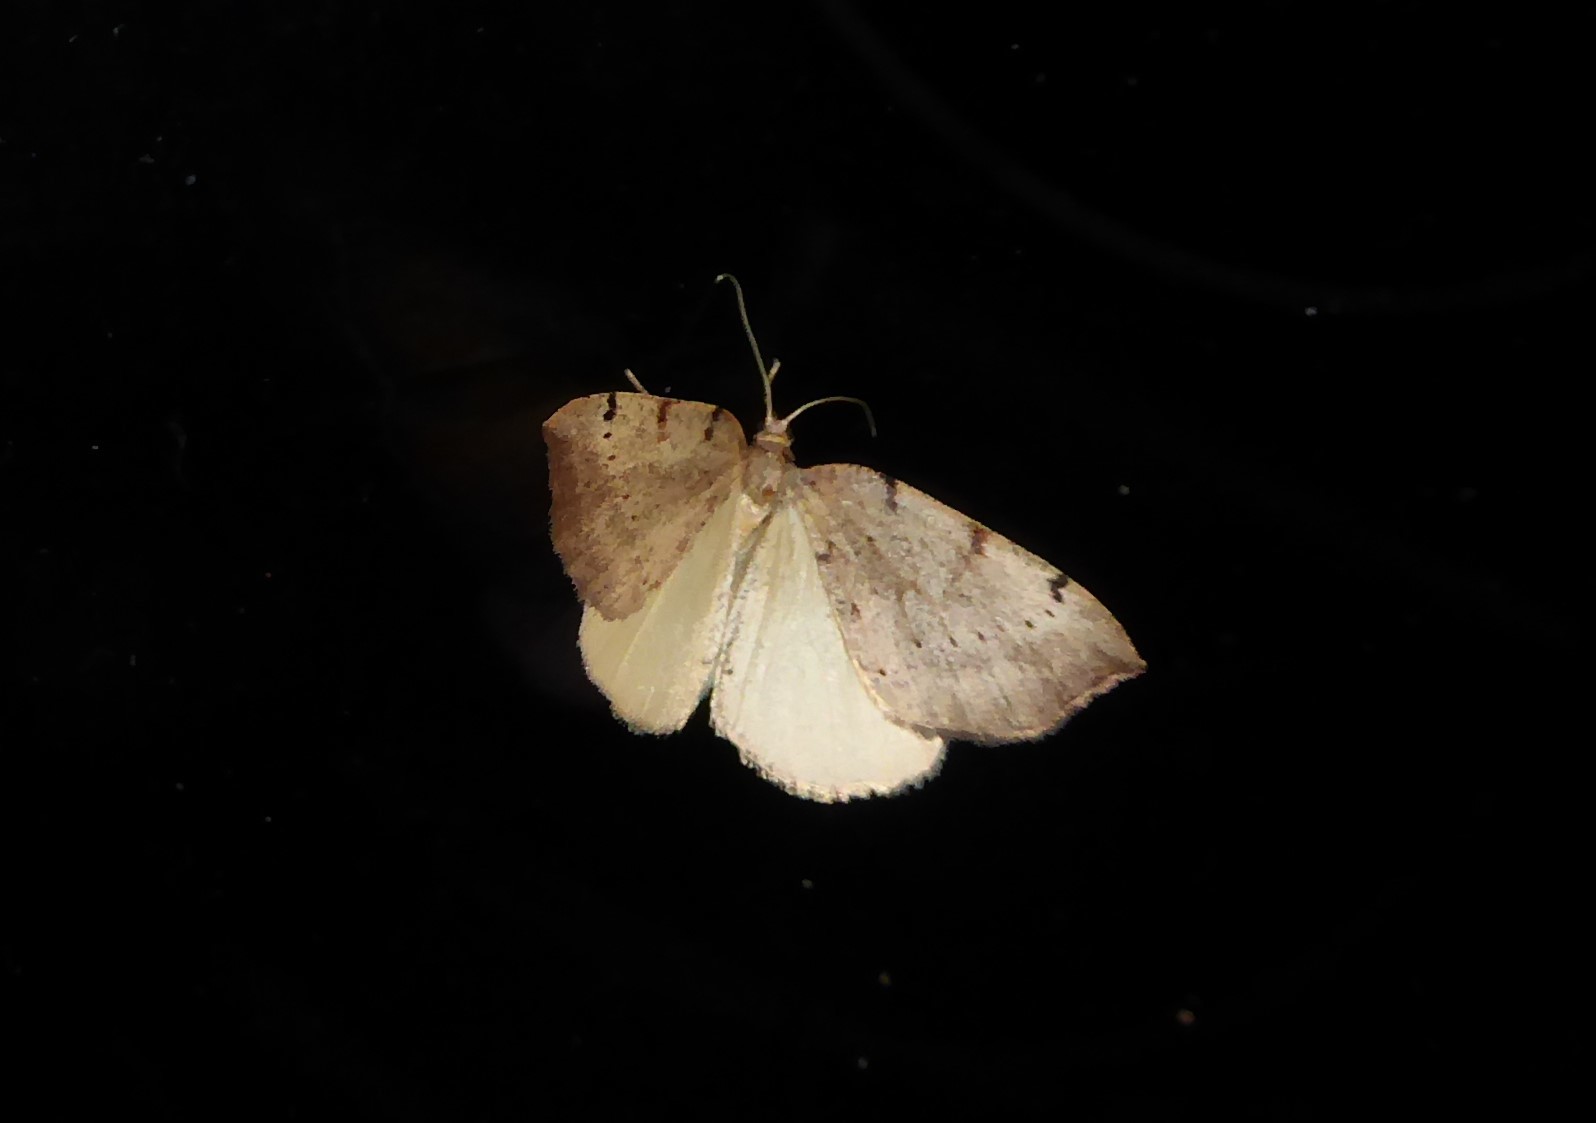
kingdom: Animalia
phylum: Arthropoda
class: Insecta
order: Lepidoptera
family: Geometridae
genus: Sestra
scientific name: Sestra humeraria
